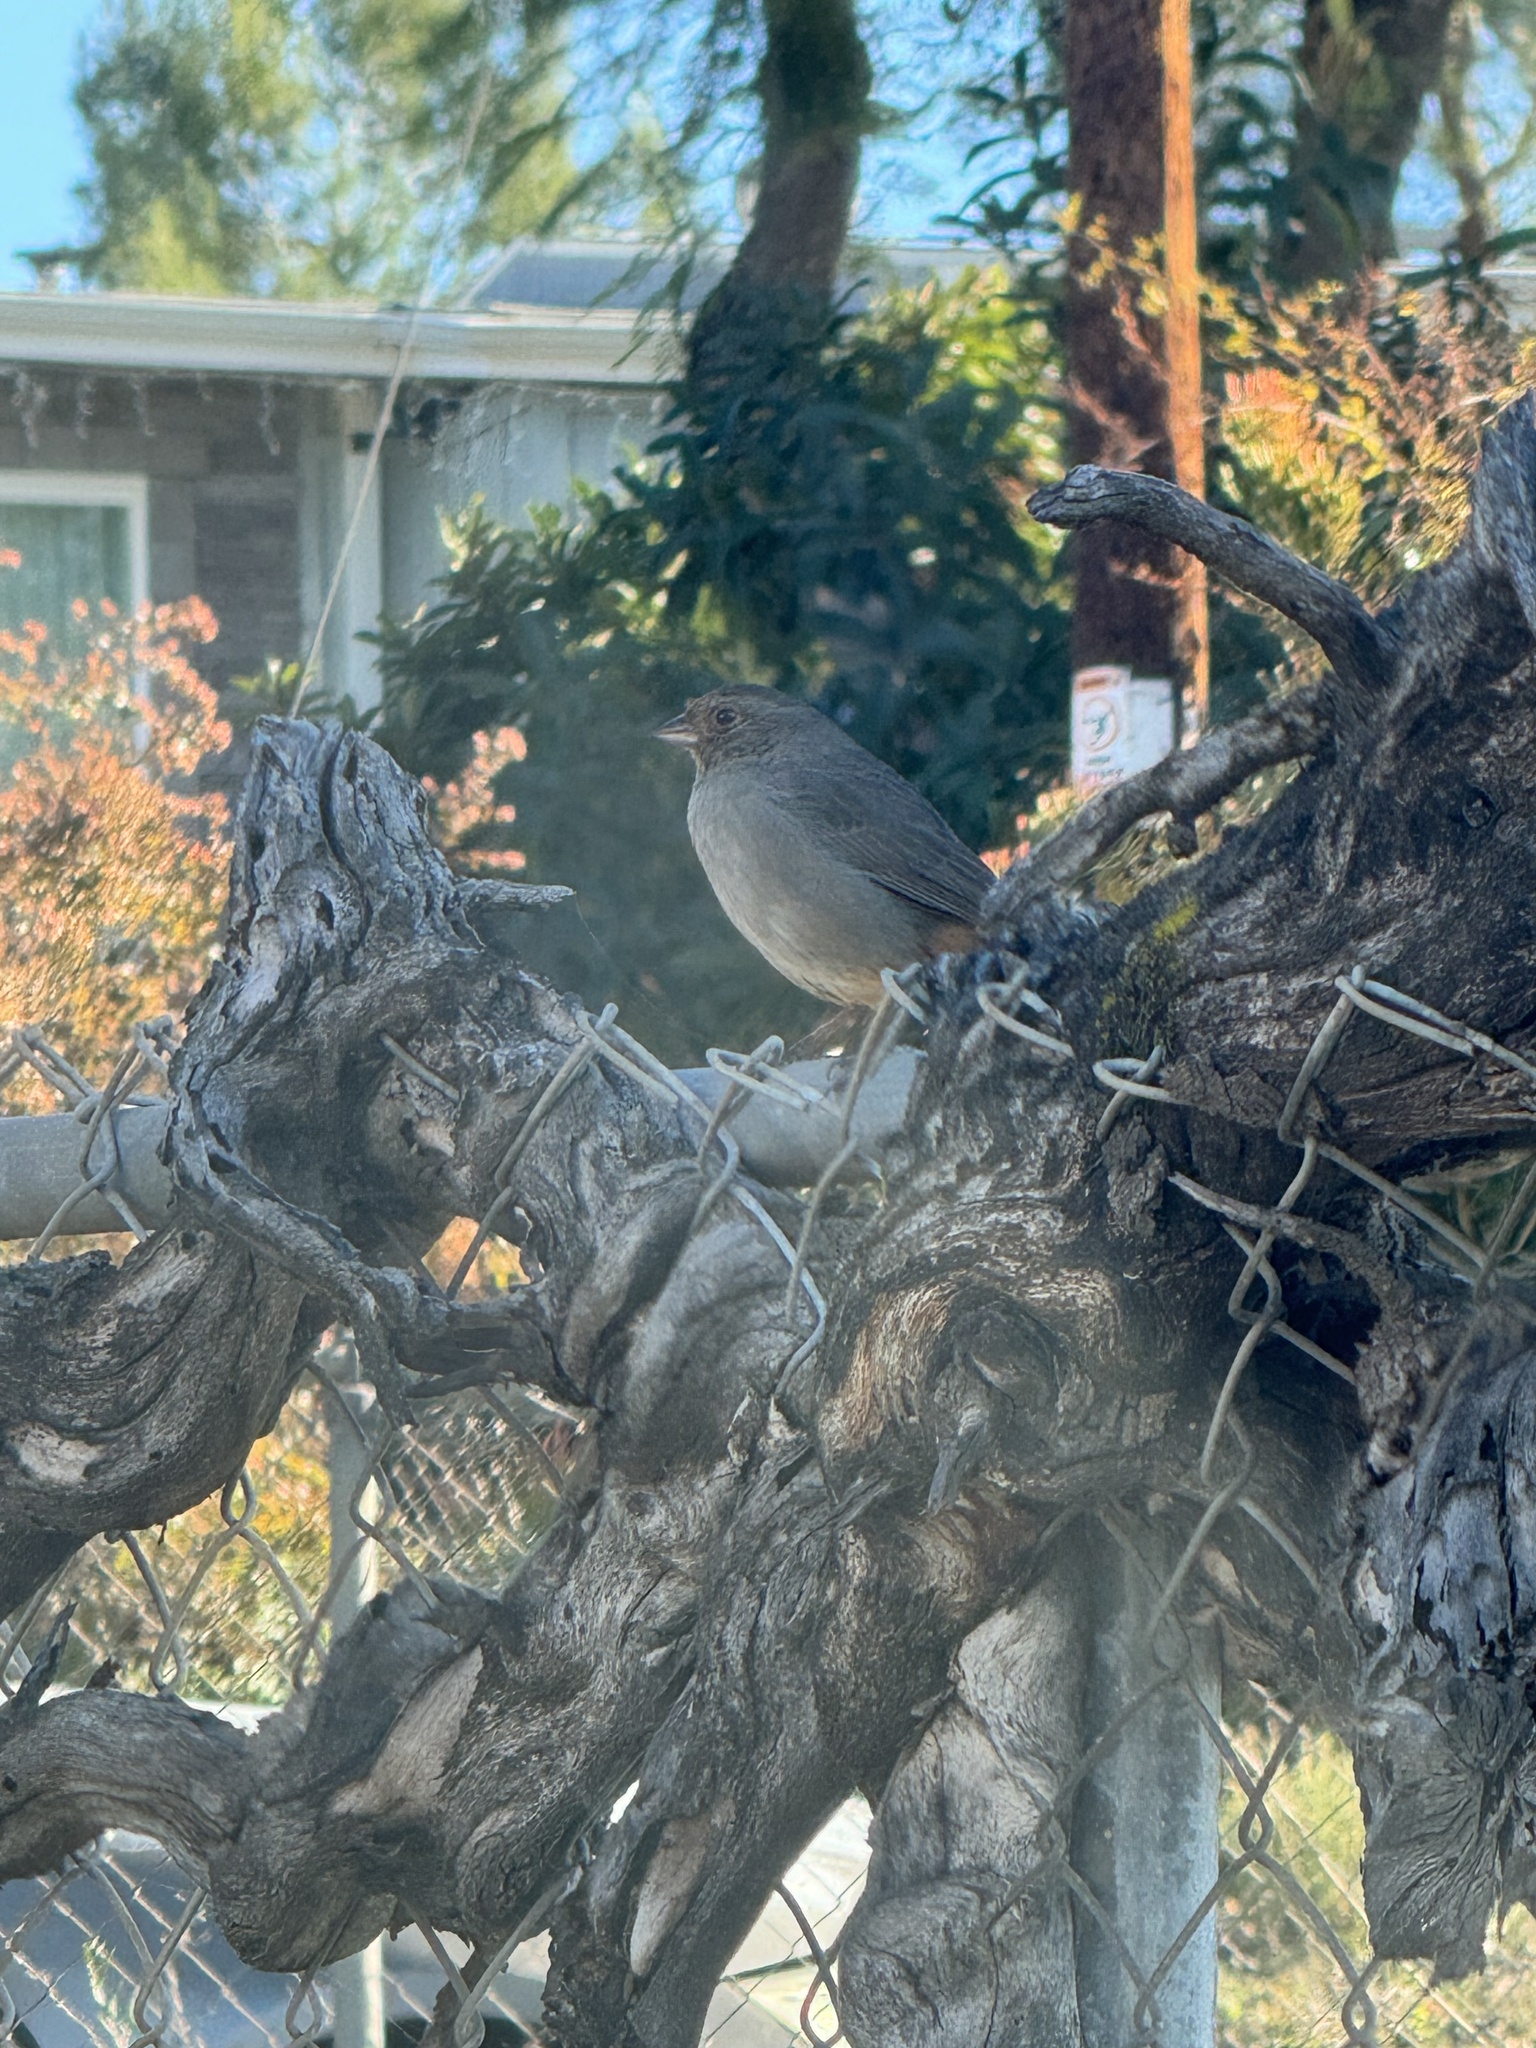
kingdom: Animalia
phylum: Chordata
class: Aves
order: Passeriformes
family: Passerellidae
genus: Melozone
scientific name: Melozone crissalis
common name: California towhee
